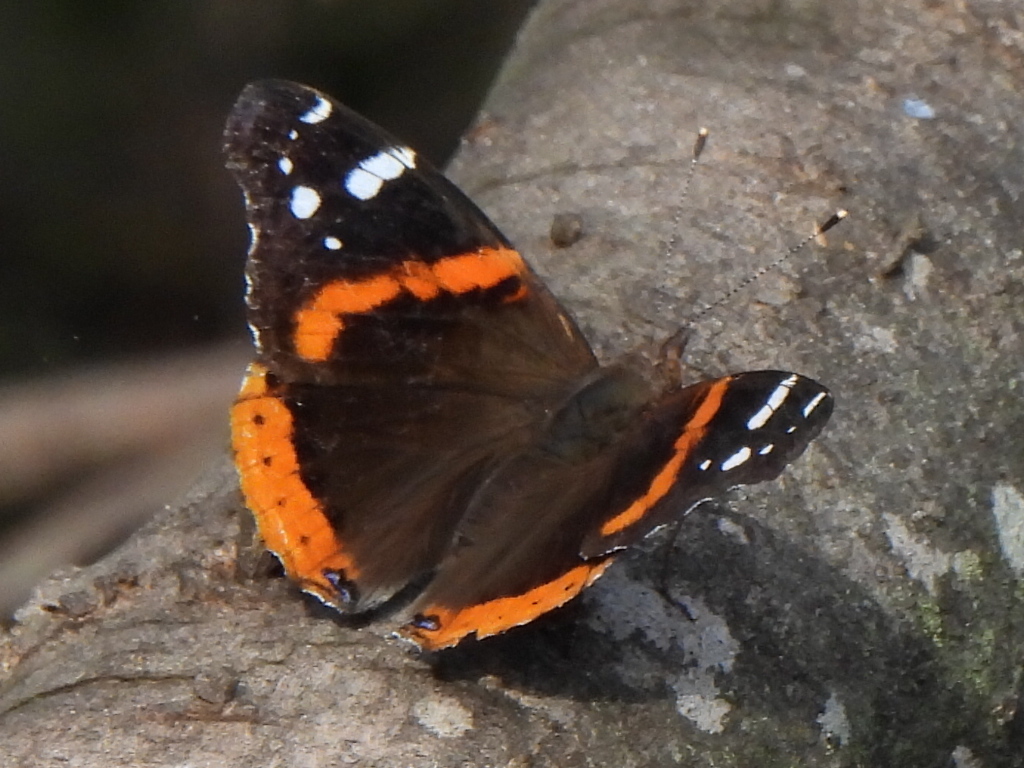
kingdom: Animalia
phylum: Arthropoda
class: Insecta
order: Lepidoptera
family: Nymphalidae
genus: Vanessa
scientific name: Vanessa atalanta
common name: Red admiral
